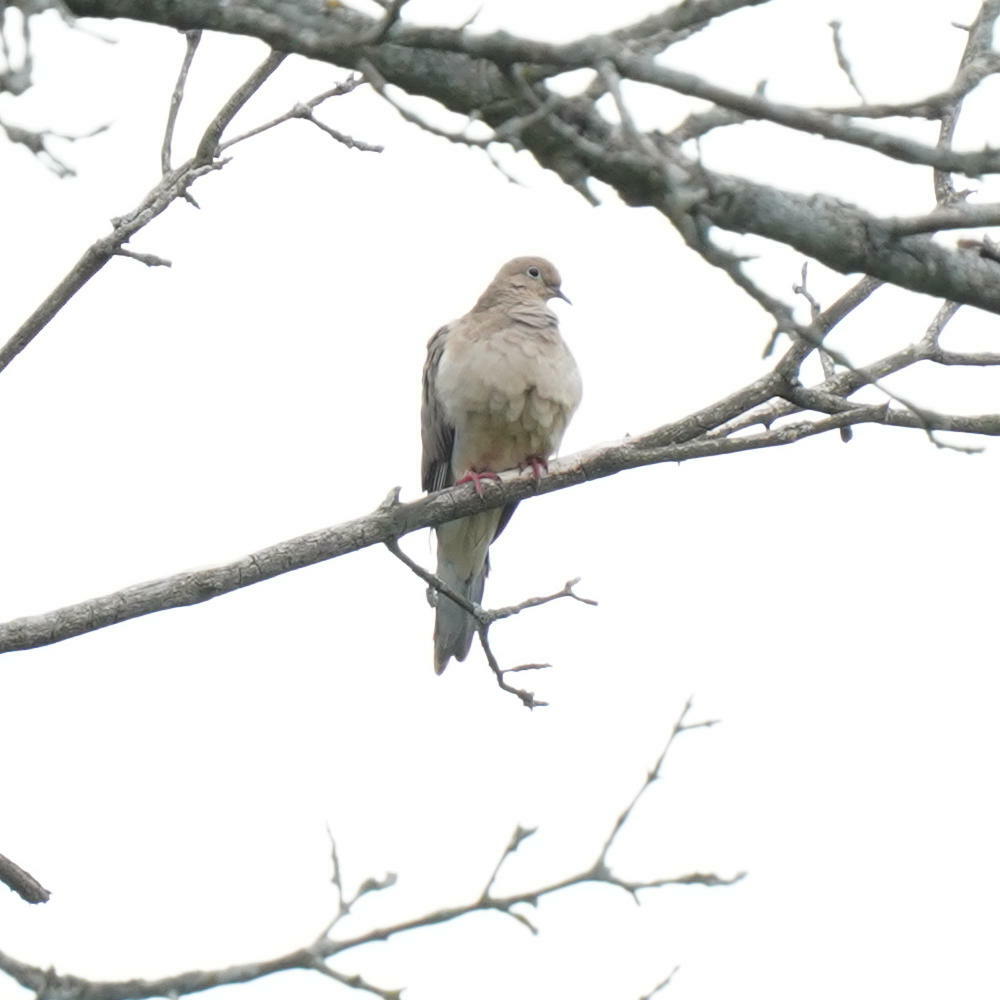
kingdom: Animalia
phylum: Chordata
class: Aves
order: Columbiformes
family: Columbidae
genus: Zenaida
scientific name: Zenaida macroura
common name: Mourning dove
